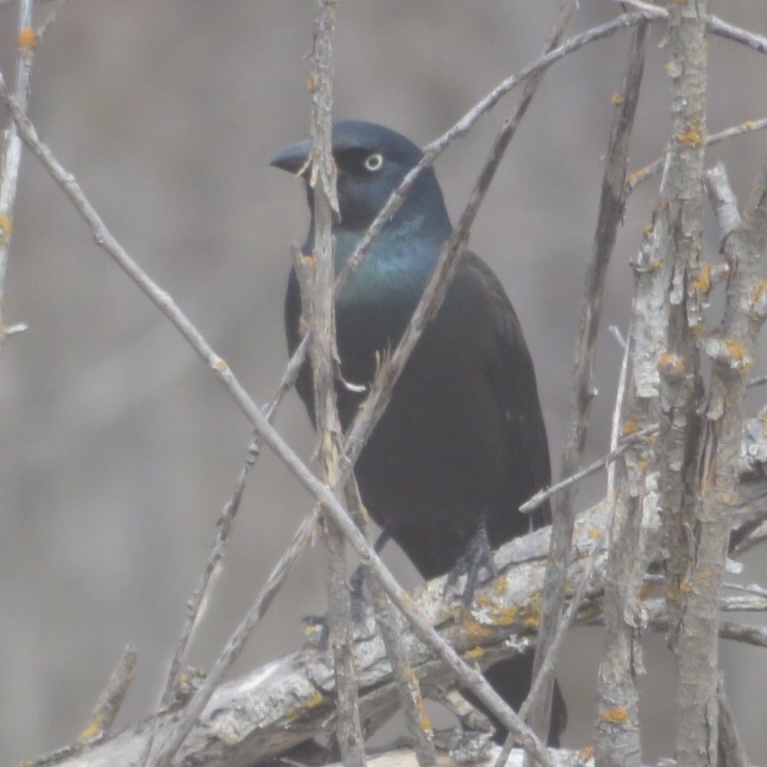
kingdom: Animalia
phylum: Chordata
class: Aves
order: Passeriformes
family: Icteridae
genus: Quiscalus
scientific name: Quiscalus quiscula
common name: Common grackle
